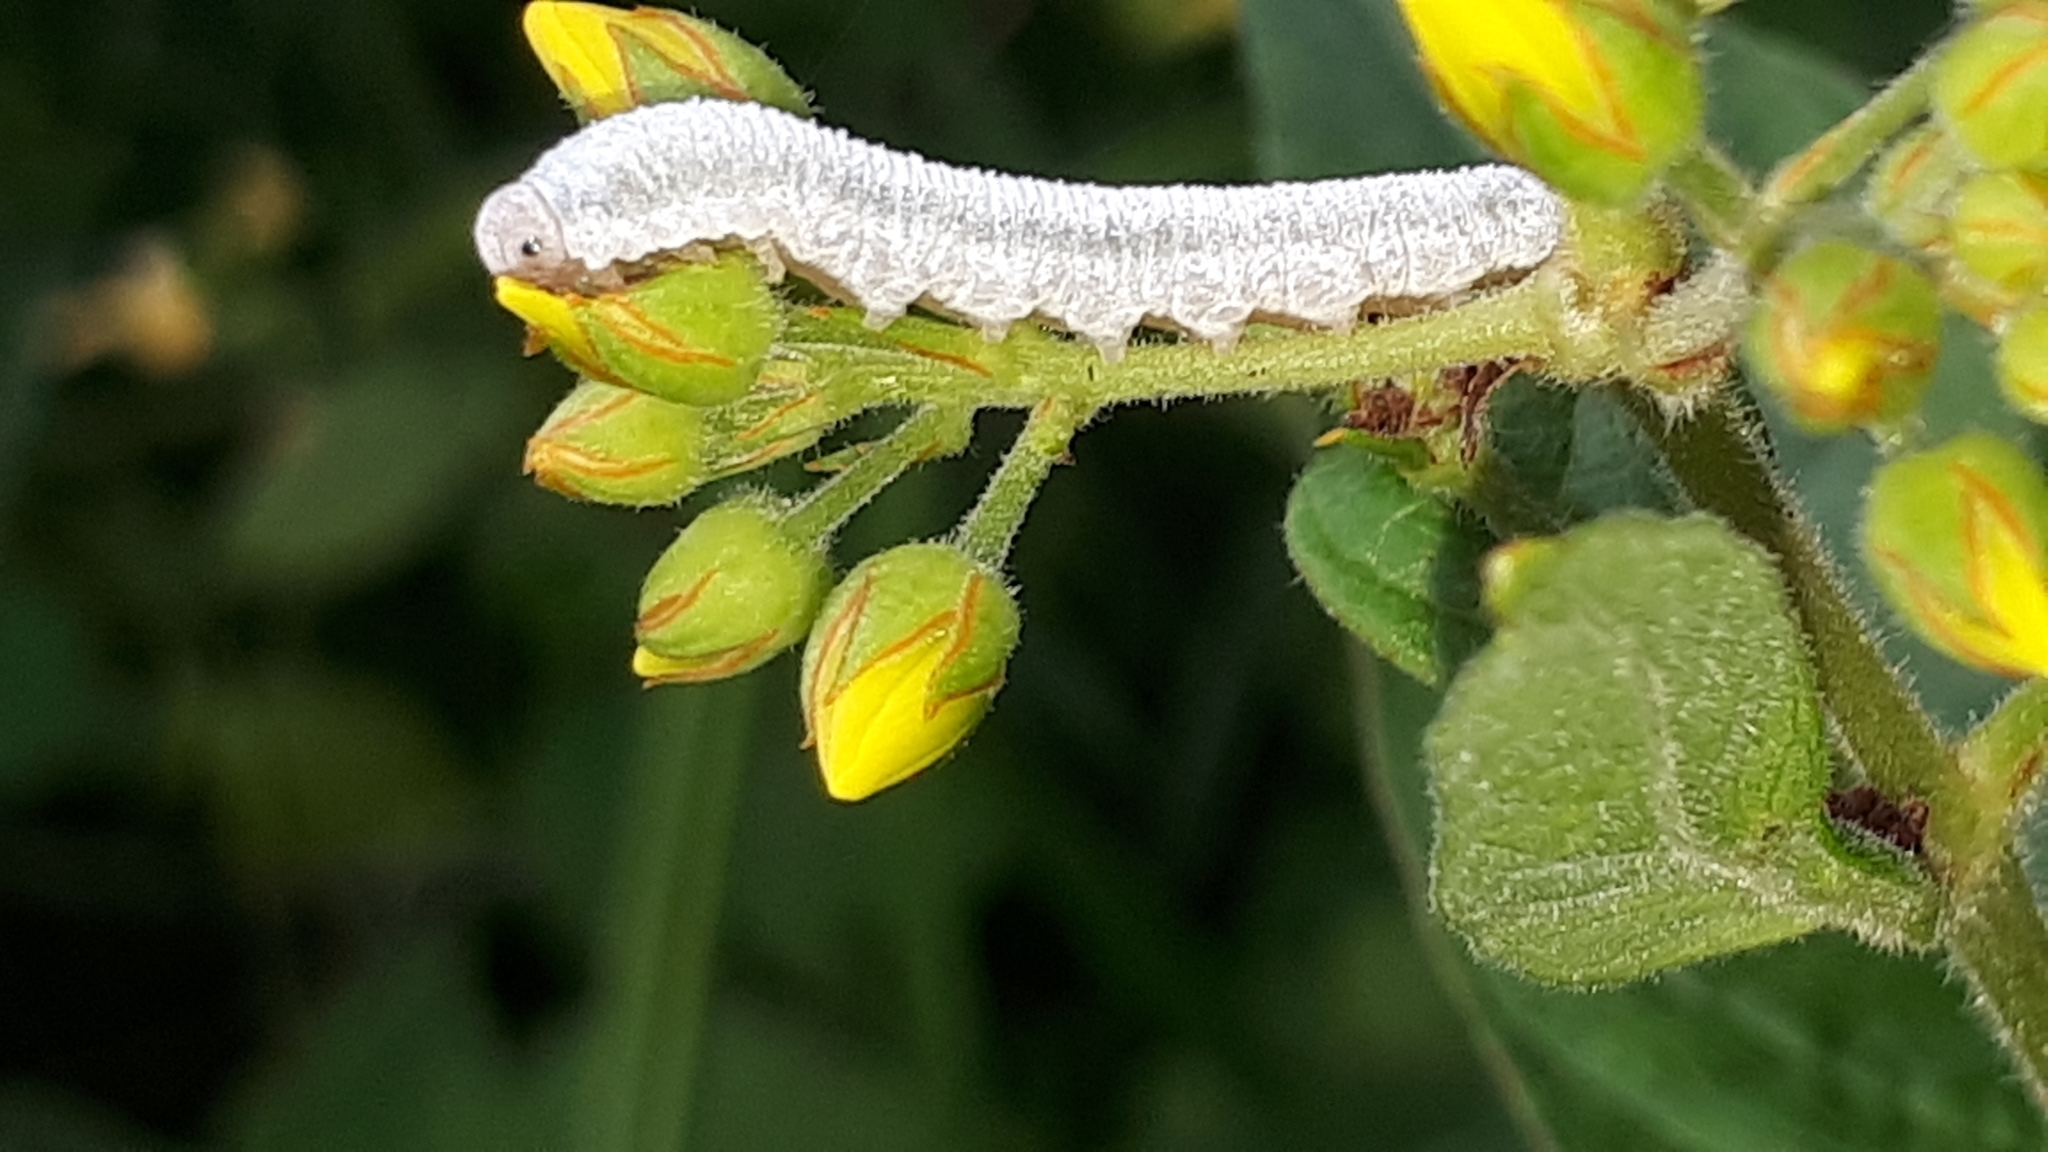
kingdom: Animalia
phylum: Arthropoda
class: Insecta
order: Hymenoptera
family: Tenthredinidae
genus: Monostegia
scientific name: Monostegia abdominalis
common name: Tenthredid wasp
